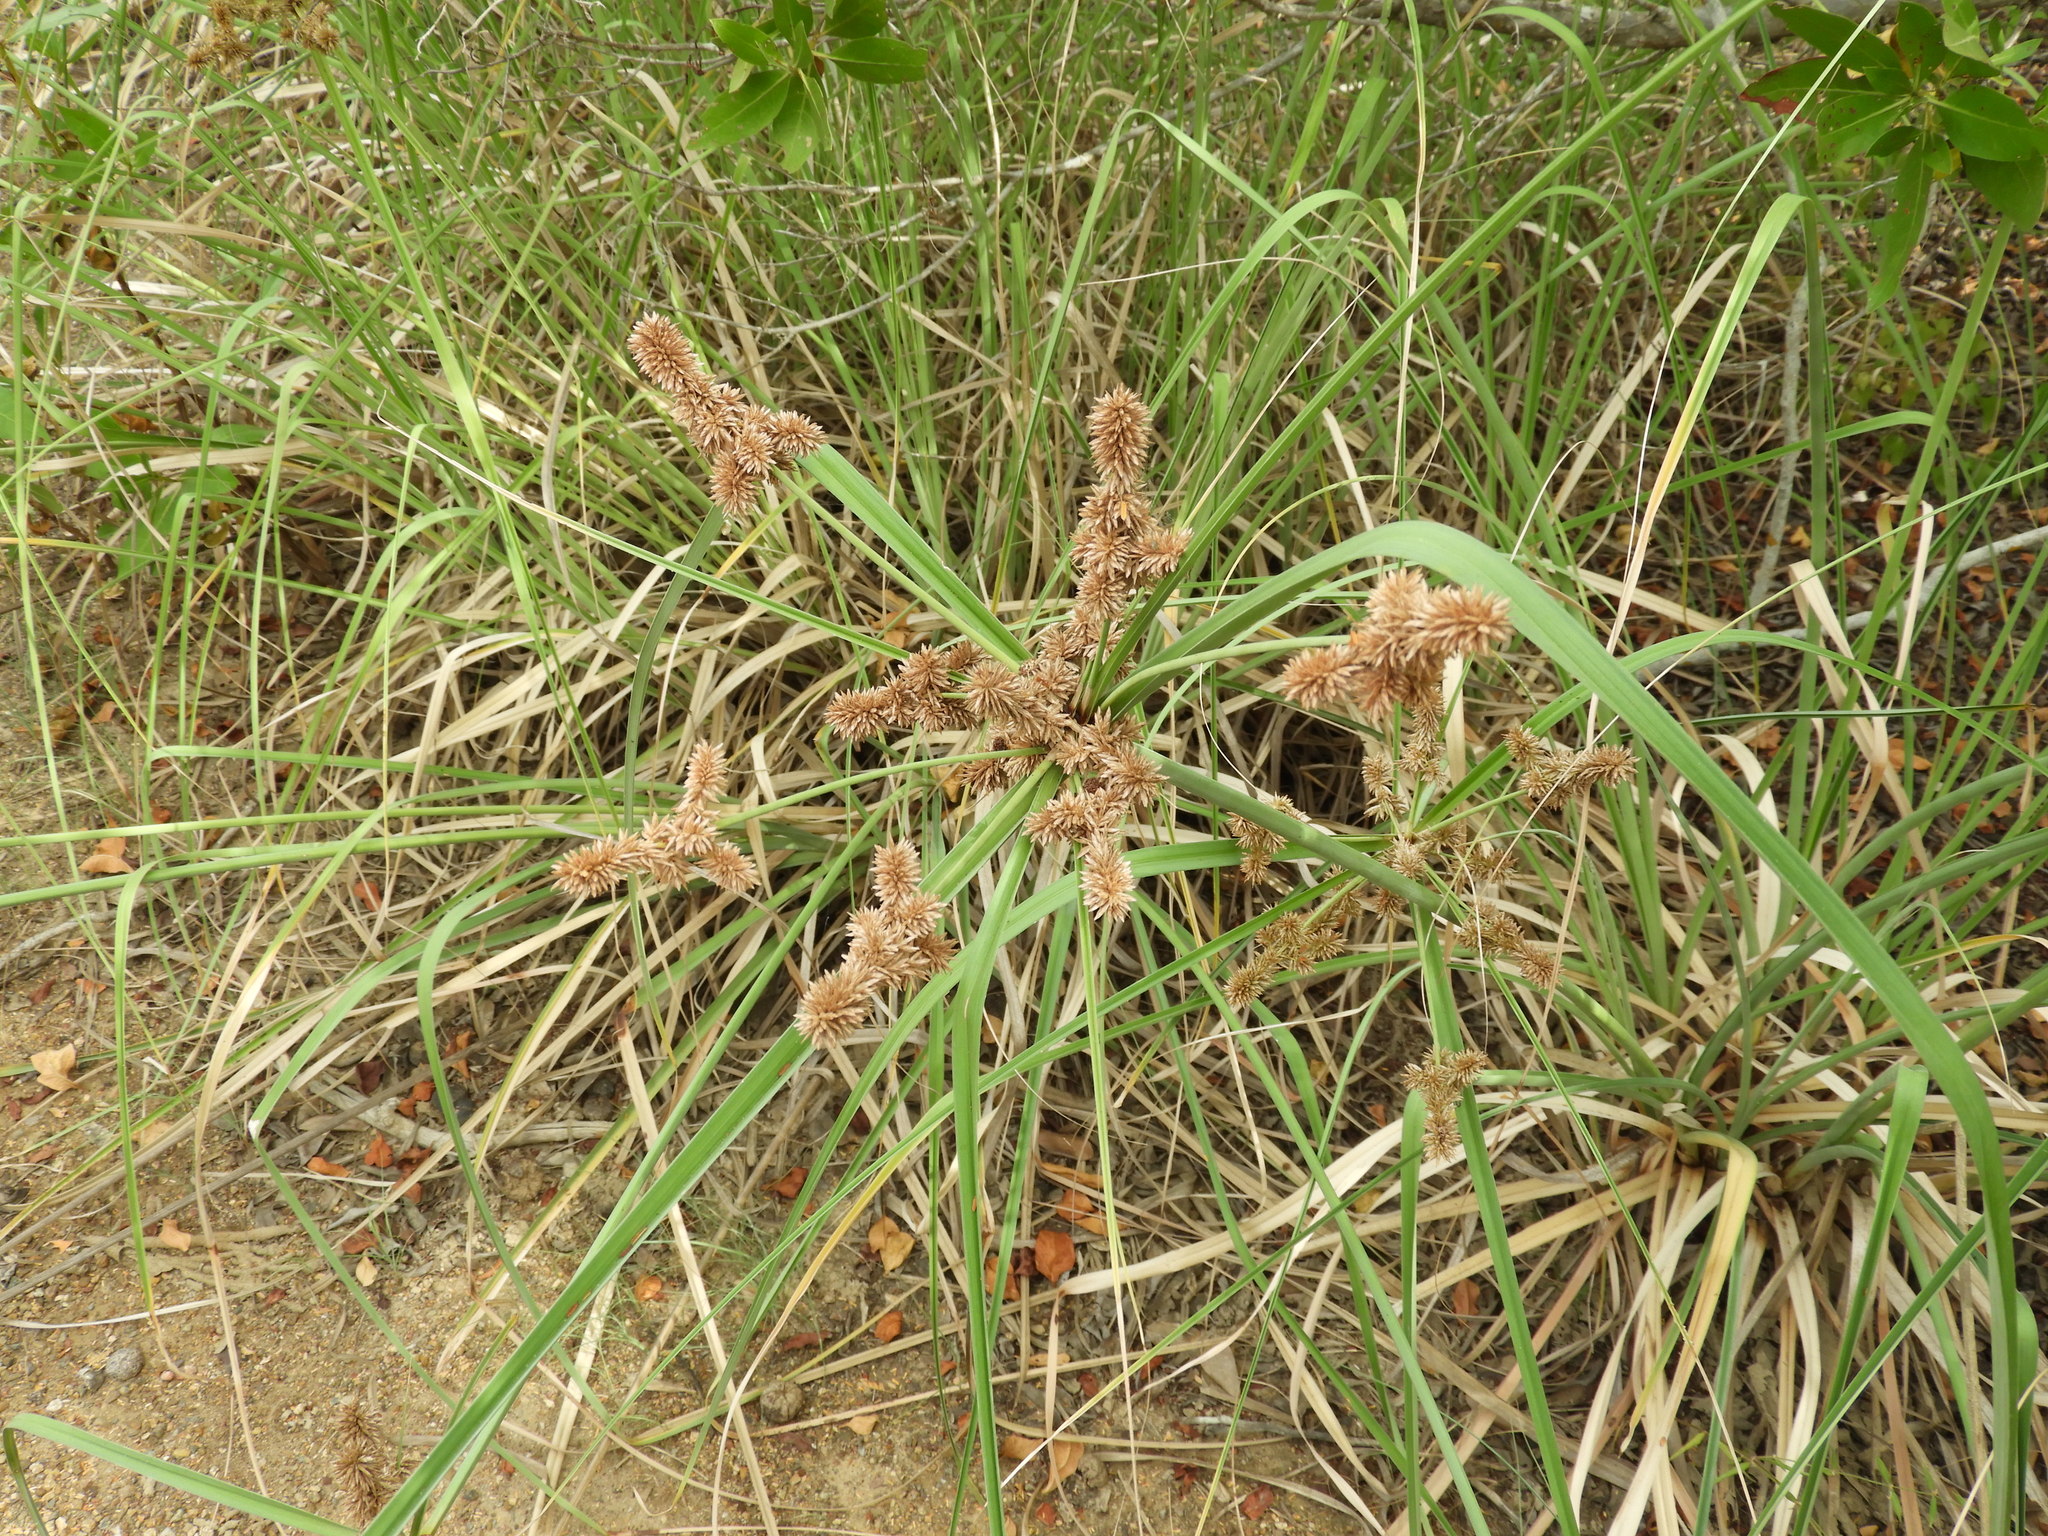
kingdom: Plantae
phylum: Tracheophyta
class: Liliopsida
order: Poales
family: Cyperaceae
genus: Cyperus
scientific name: Cyperus
